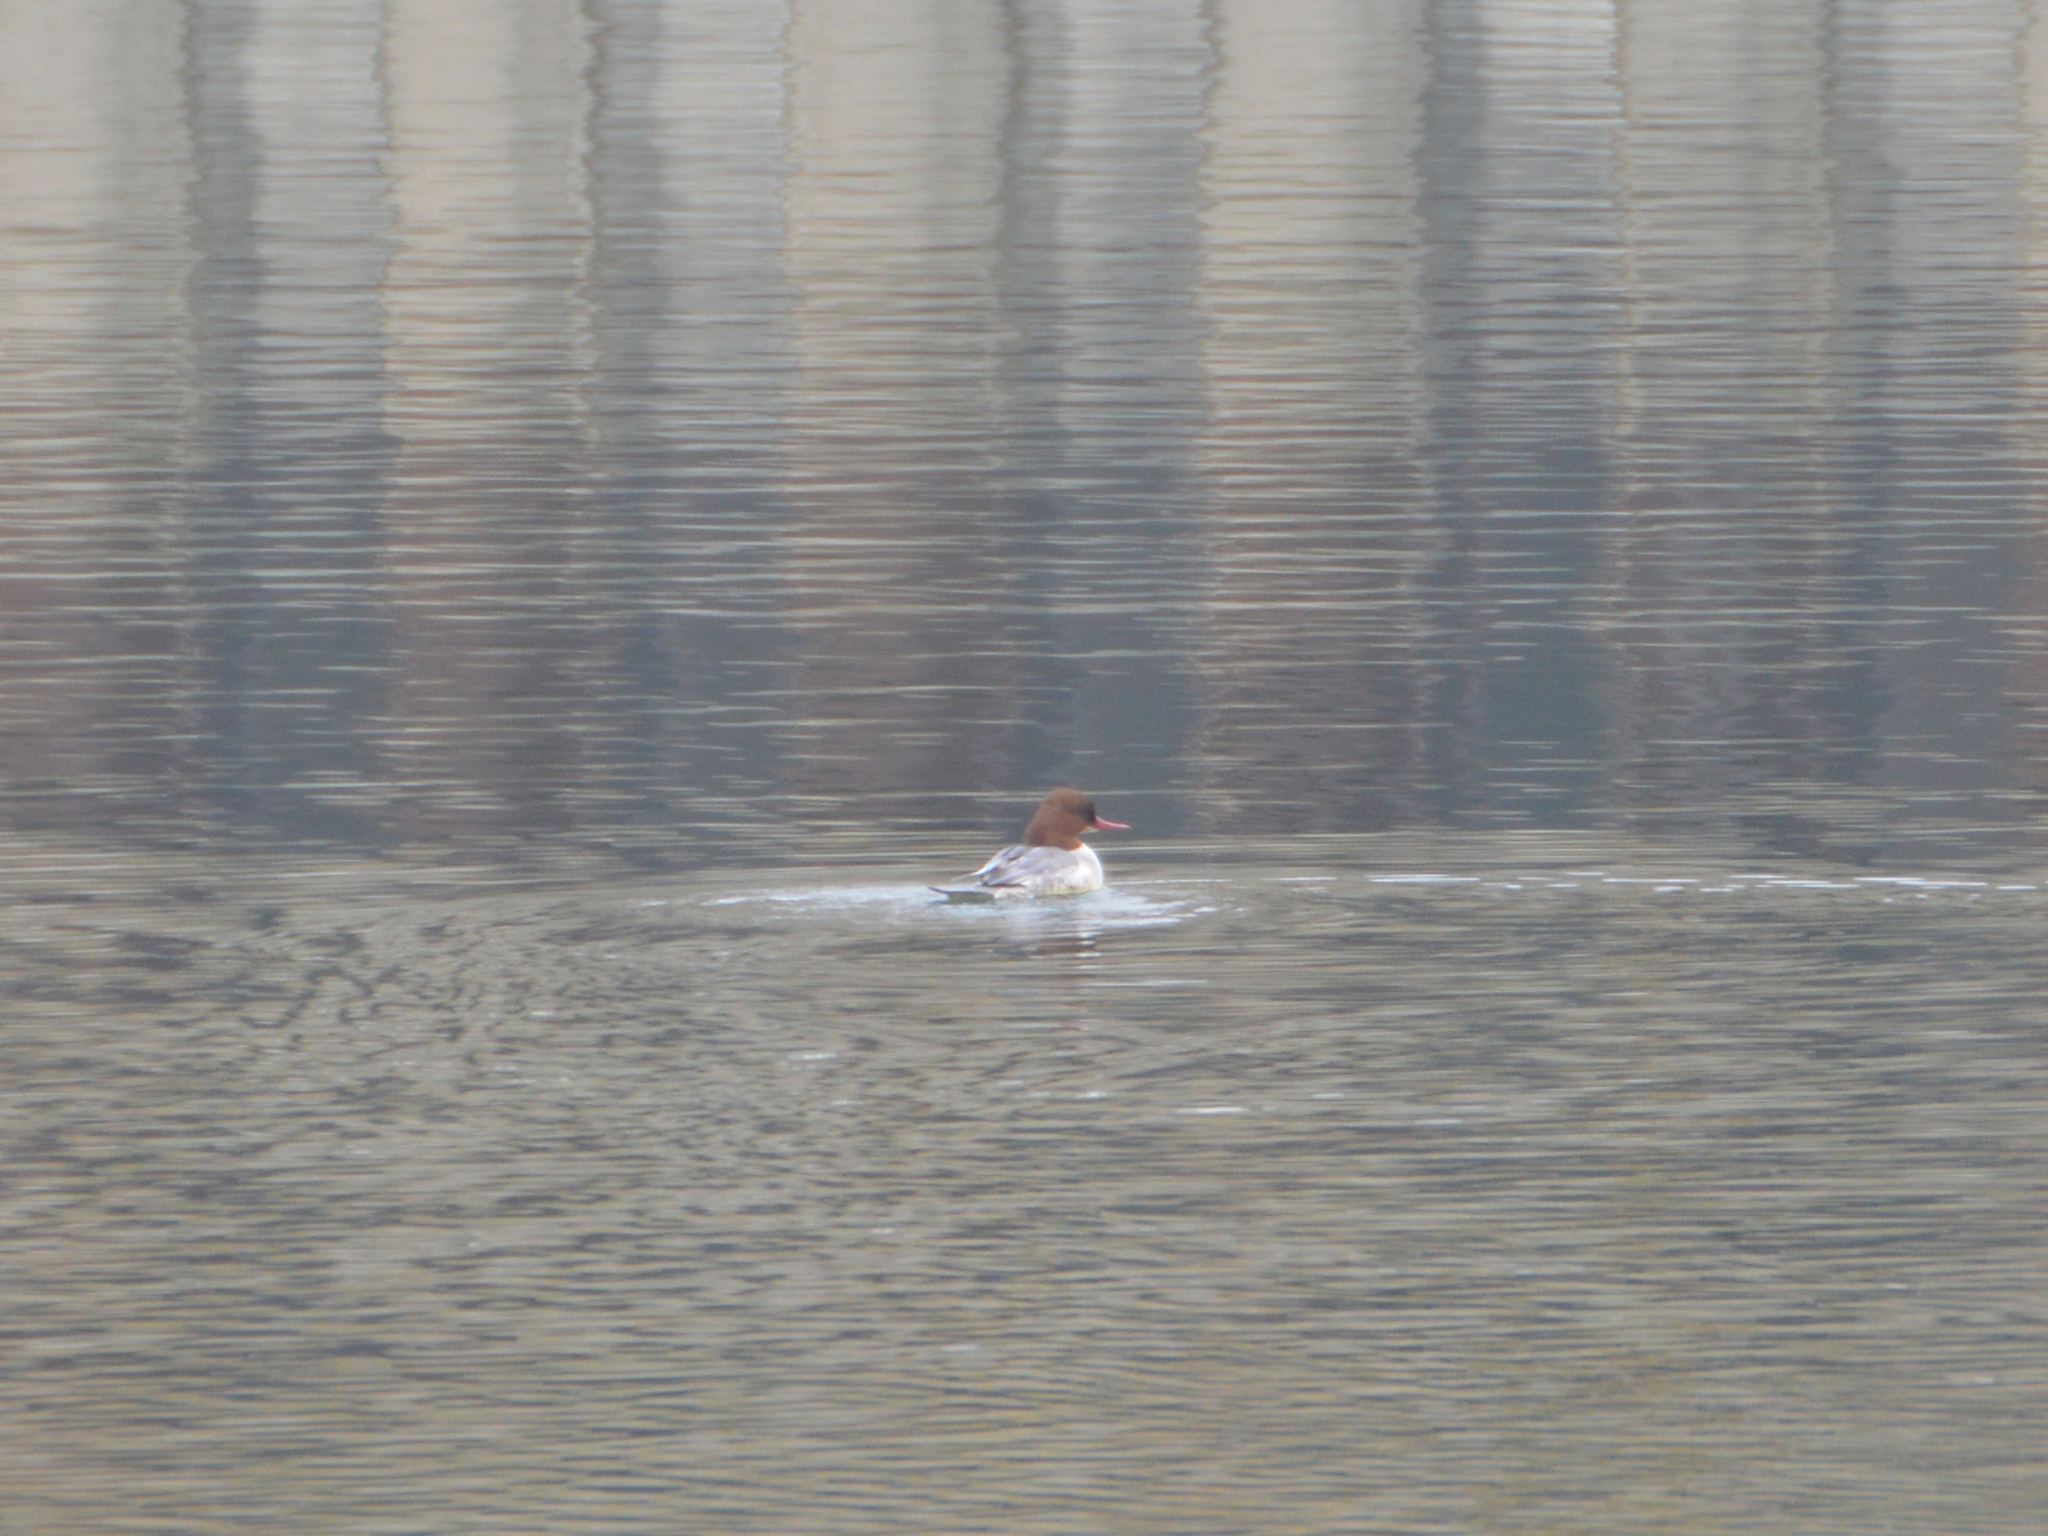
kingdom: Animalia
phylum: Chordata
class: Aves
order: Anseriformes
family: Anatidae
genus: Mergus
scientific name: Mergus merganser
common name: Common merganser
